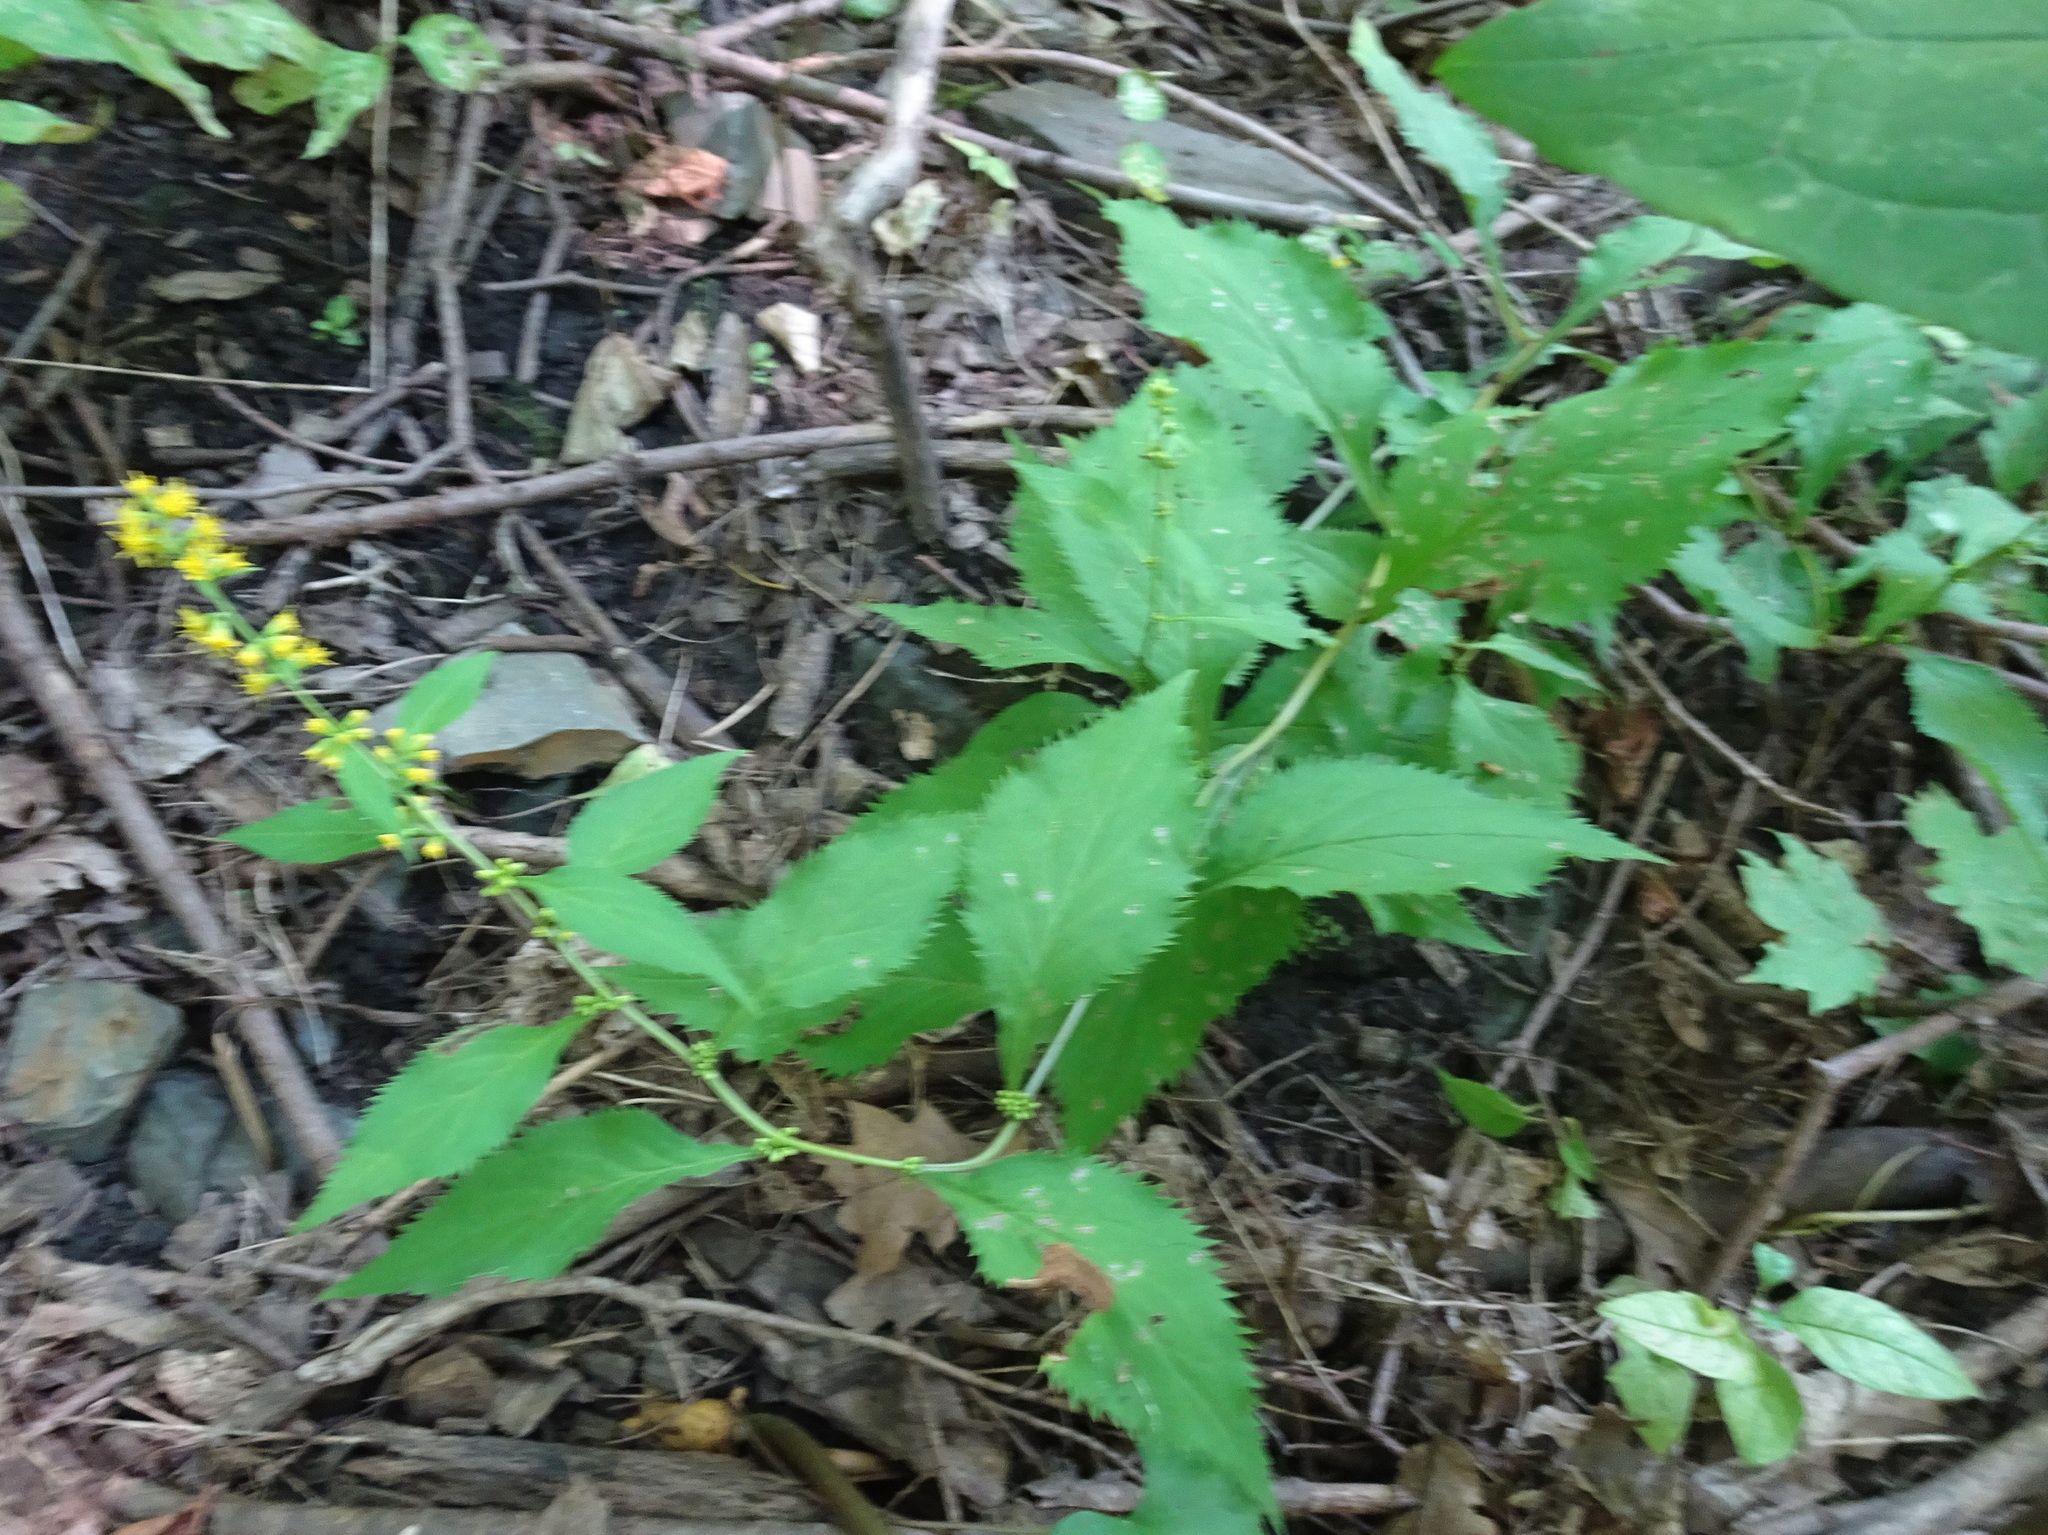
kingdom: Plantae
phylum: Tracheophyta
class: Magnoliopsida
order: Asterales
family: Asteraceae
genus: Solidago
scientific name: Solidago flexicaulis
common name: Zig-zag goldenrod
